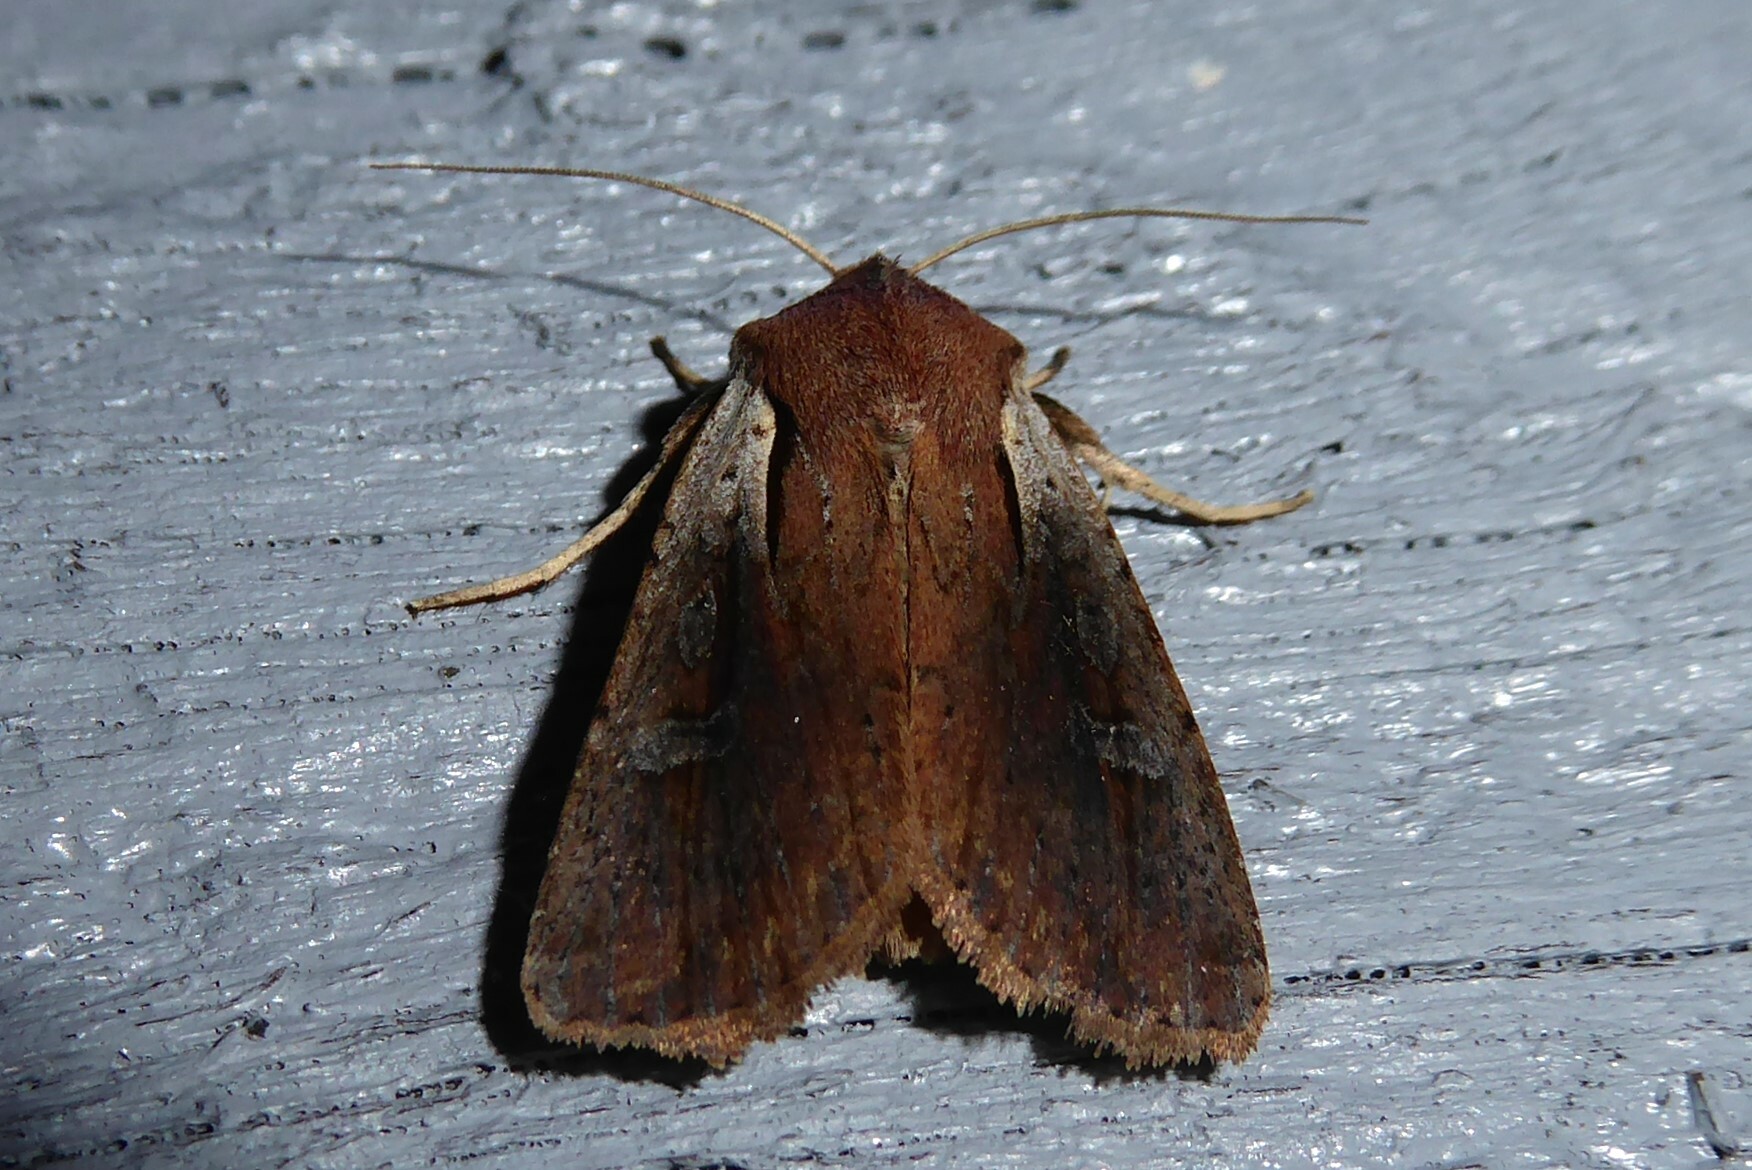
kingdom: Animalia
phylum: Arthropoda
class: Insecta
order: Lepidoptera
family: Noctuidae
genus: Ichneutica
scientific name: Ichneutica atristriga
